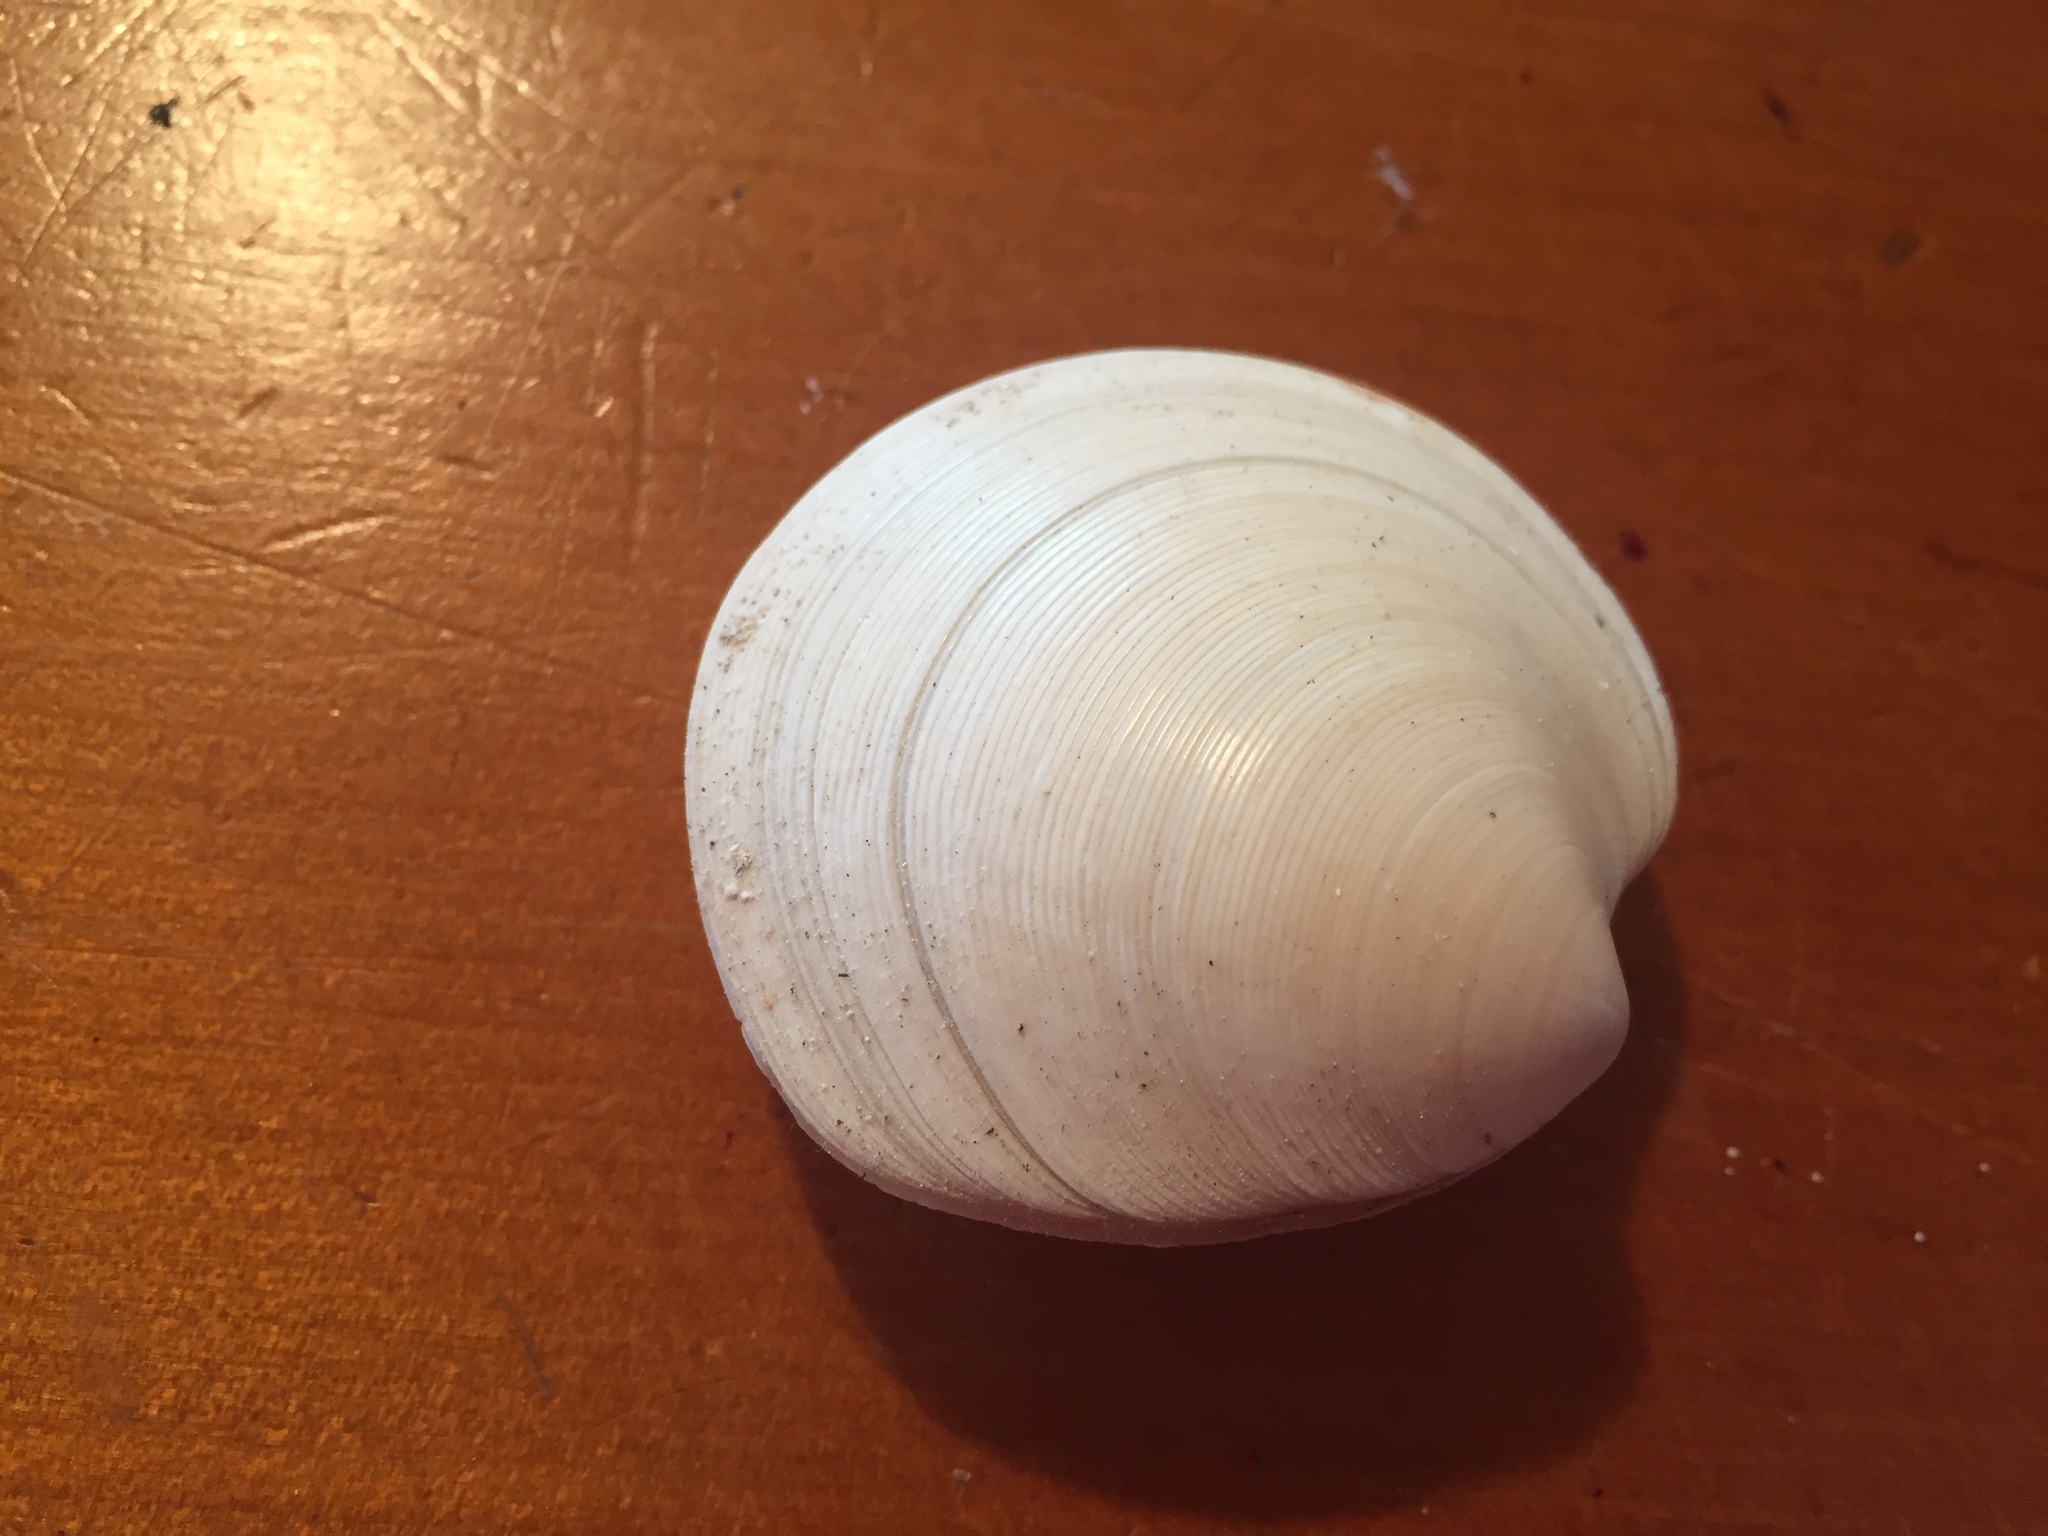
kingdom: Animalia
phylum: Mollusca
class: Bivalvia
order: Venerida
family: Veneridae
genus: Dosinia
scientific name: Dosinia subrosea
